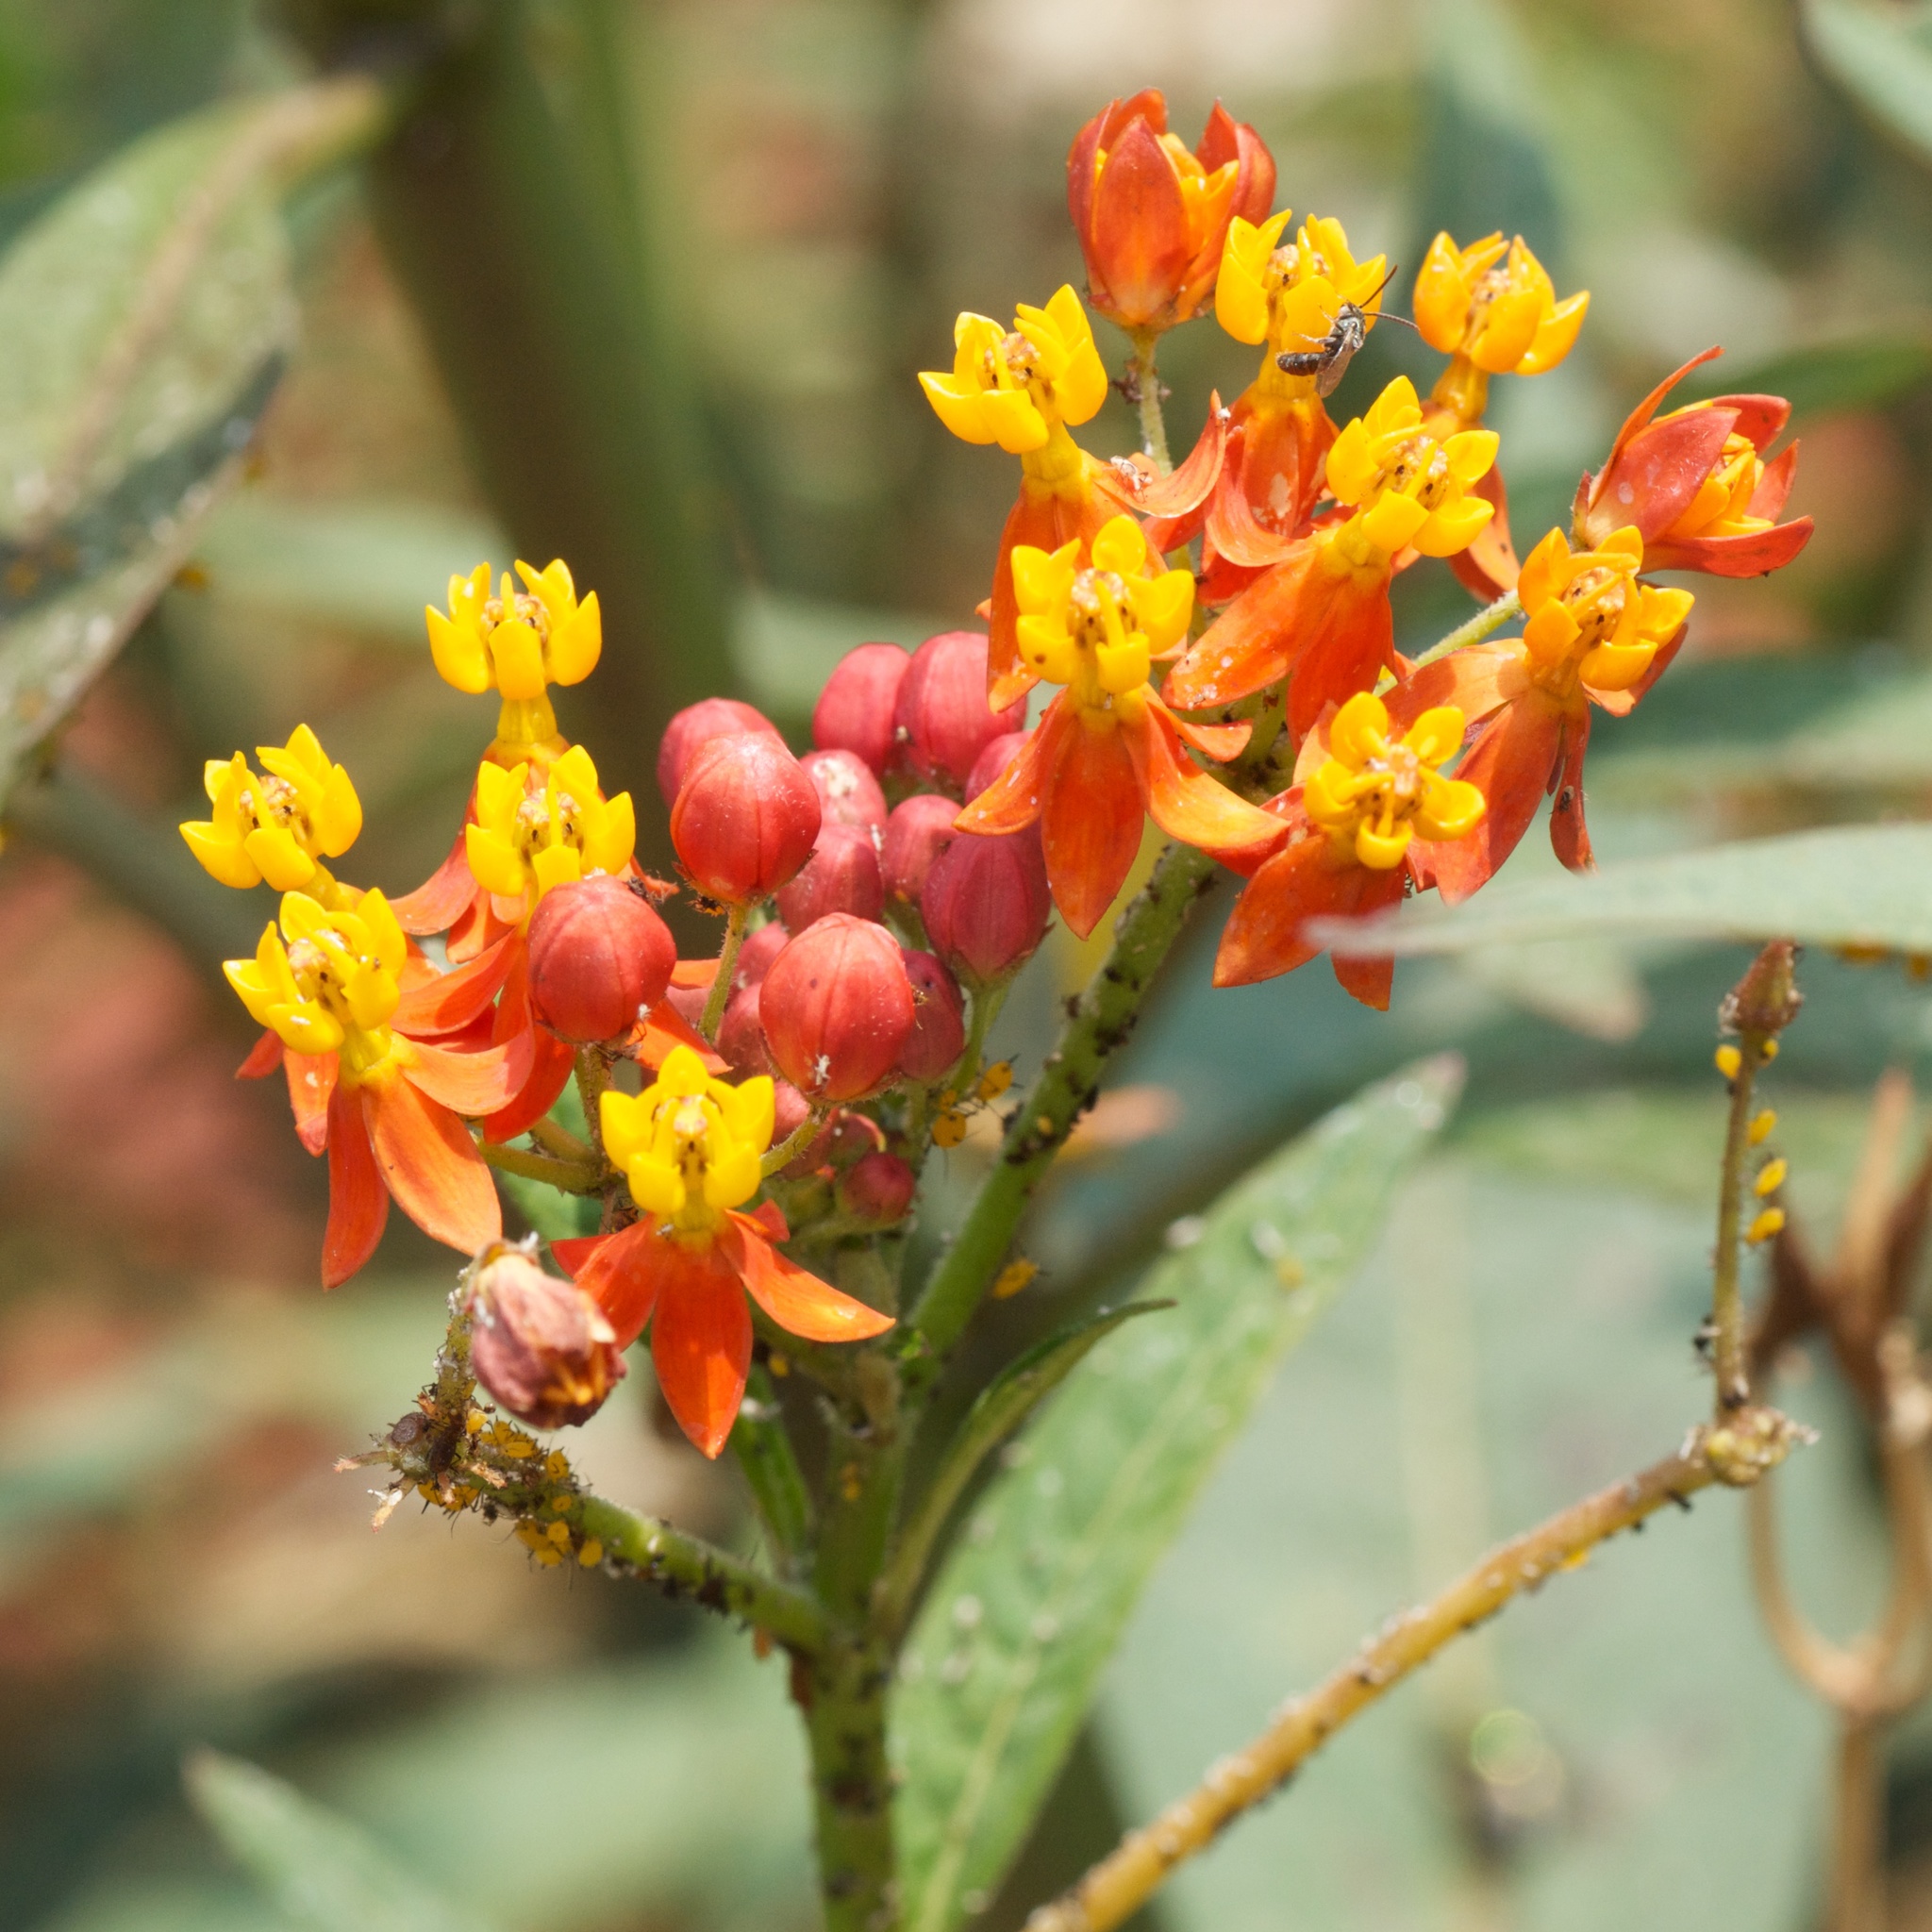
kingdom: Plantae
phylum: Tracheophyta
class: Magnoliopsida
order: Gentianales
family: Apocynaceae
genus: Asclepias
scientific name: Asclepias curassavica
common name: Bloodflower
